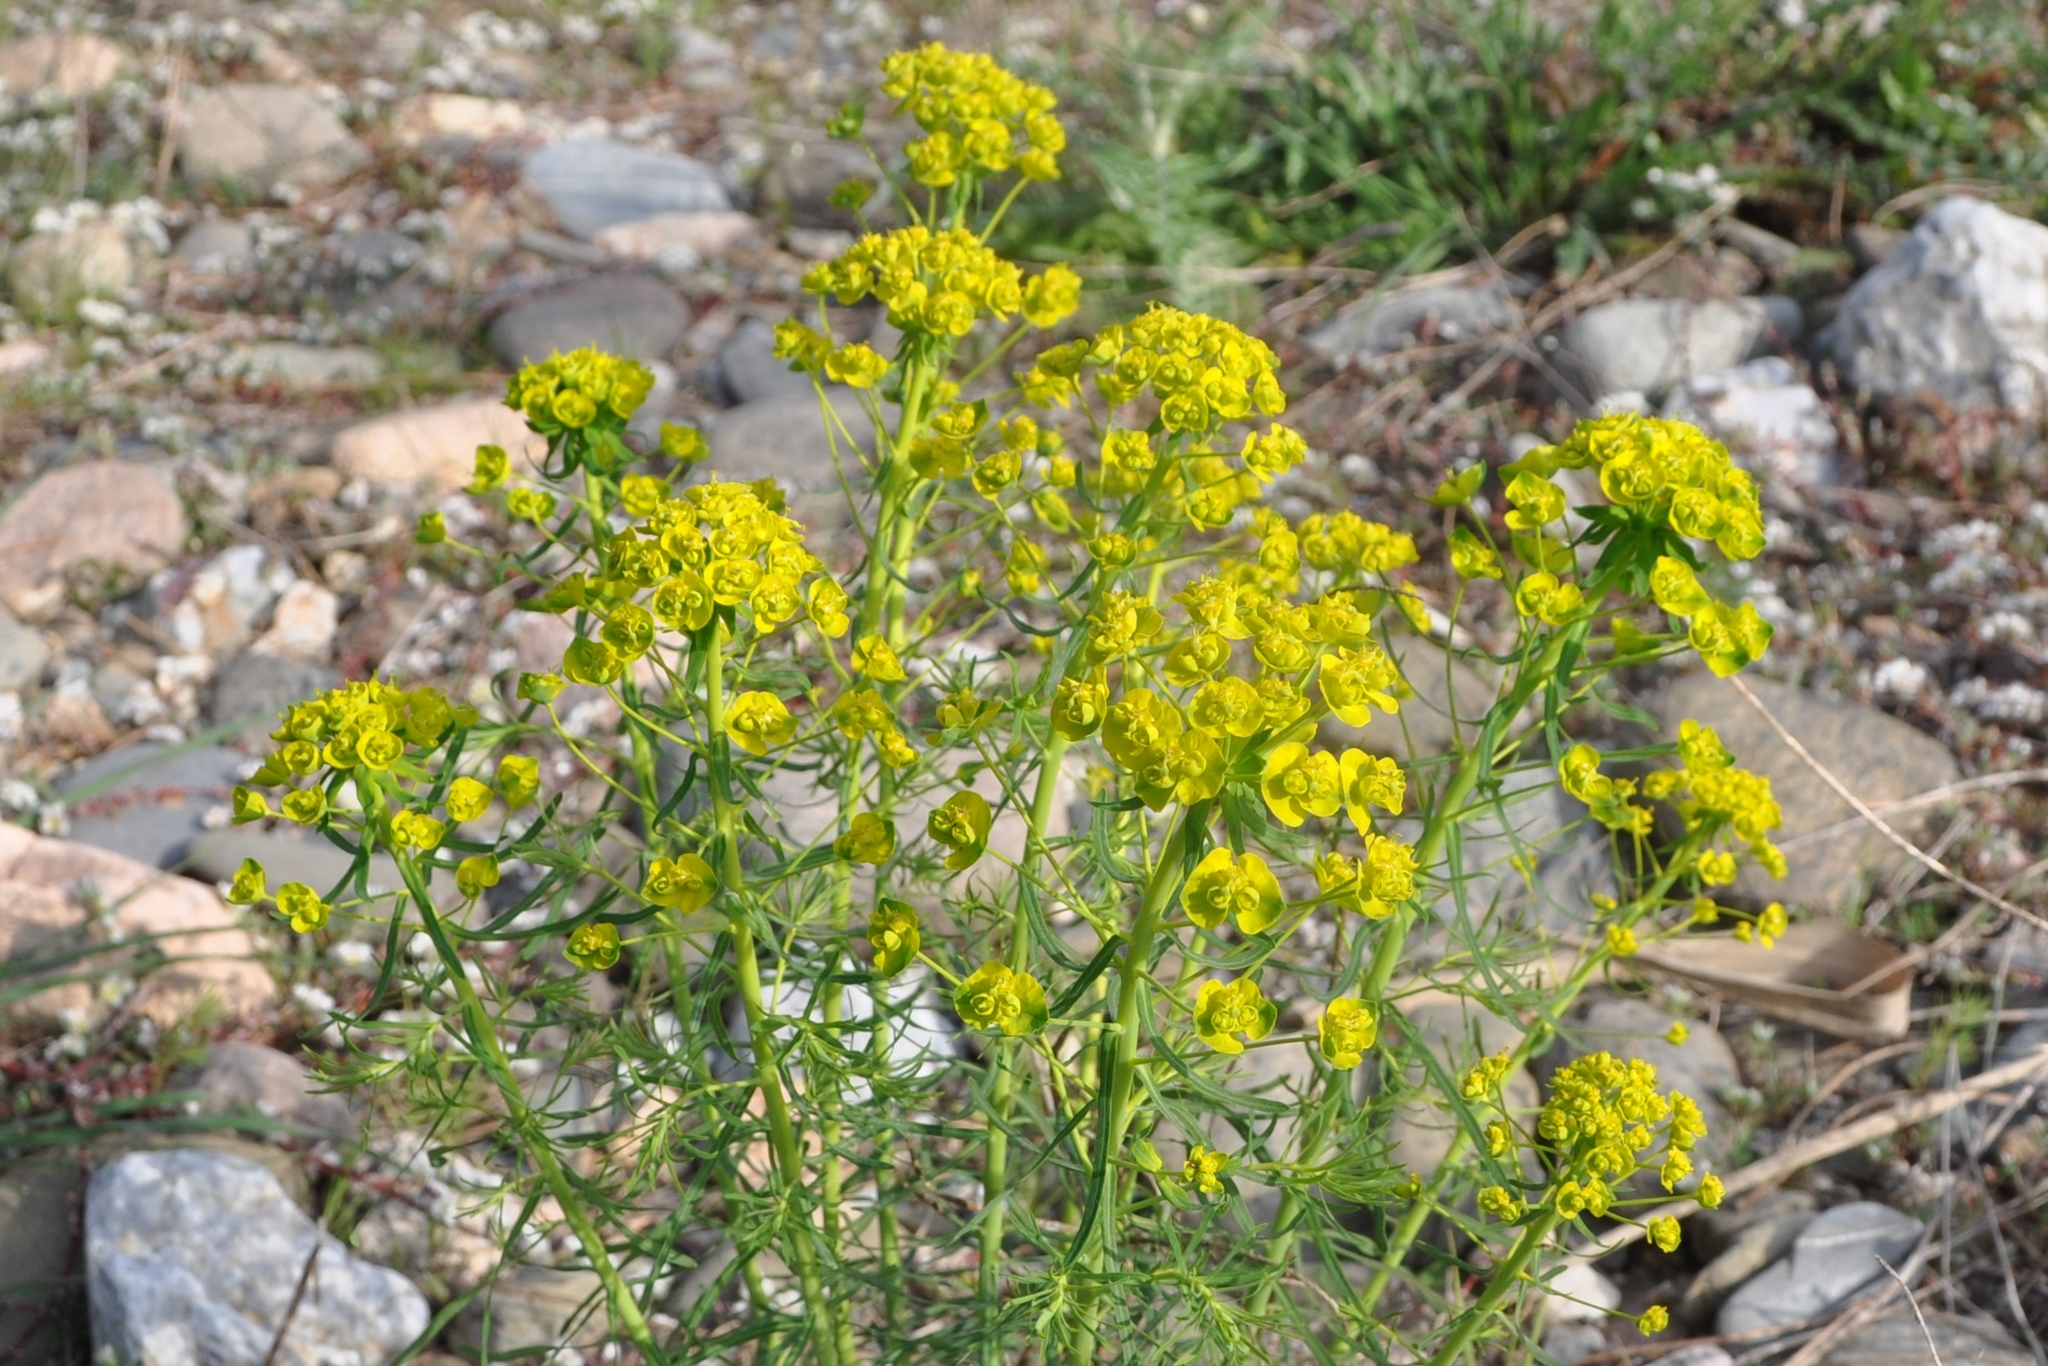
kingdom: Plantae
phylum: Tracheophyta
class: Magnoliopsida
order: Malpighiales
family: Euphorbiaceae
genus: Euphorbia
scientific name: Euphorbia cyparissias
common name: Cypress spurge
